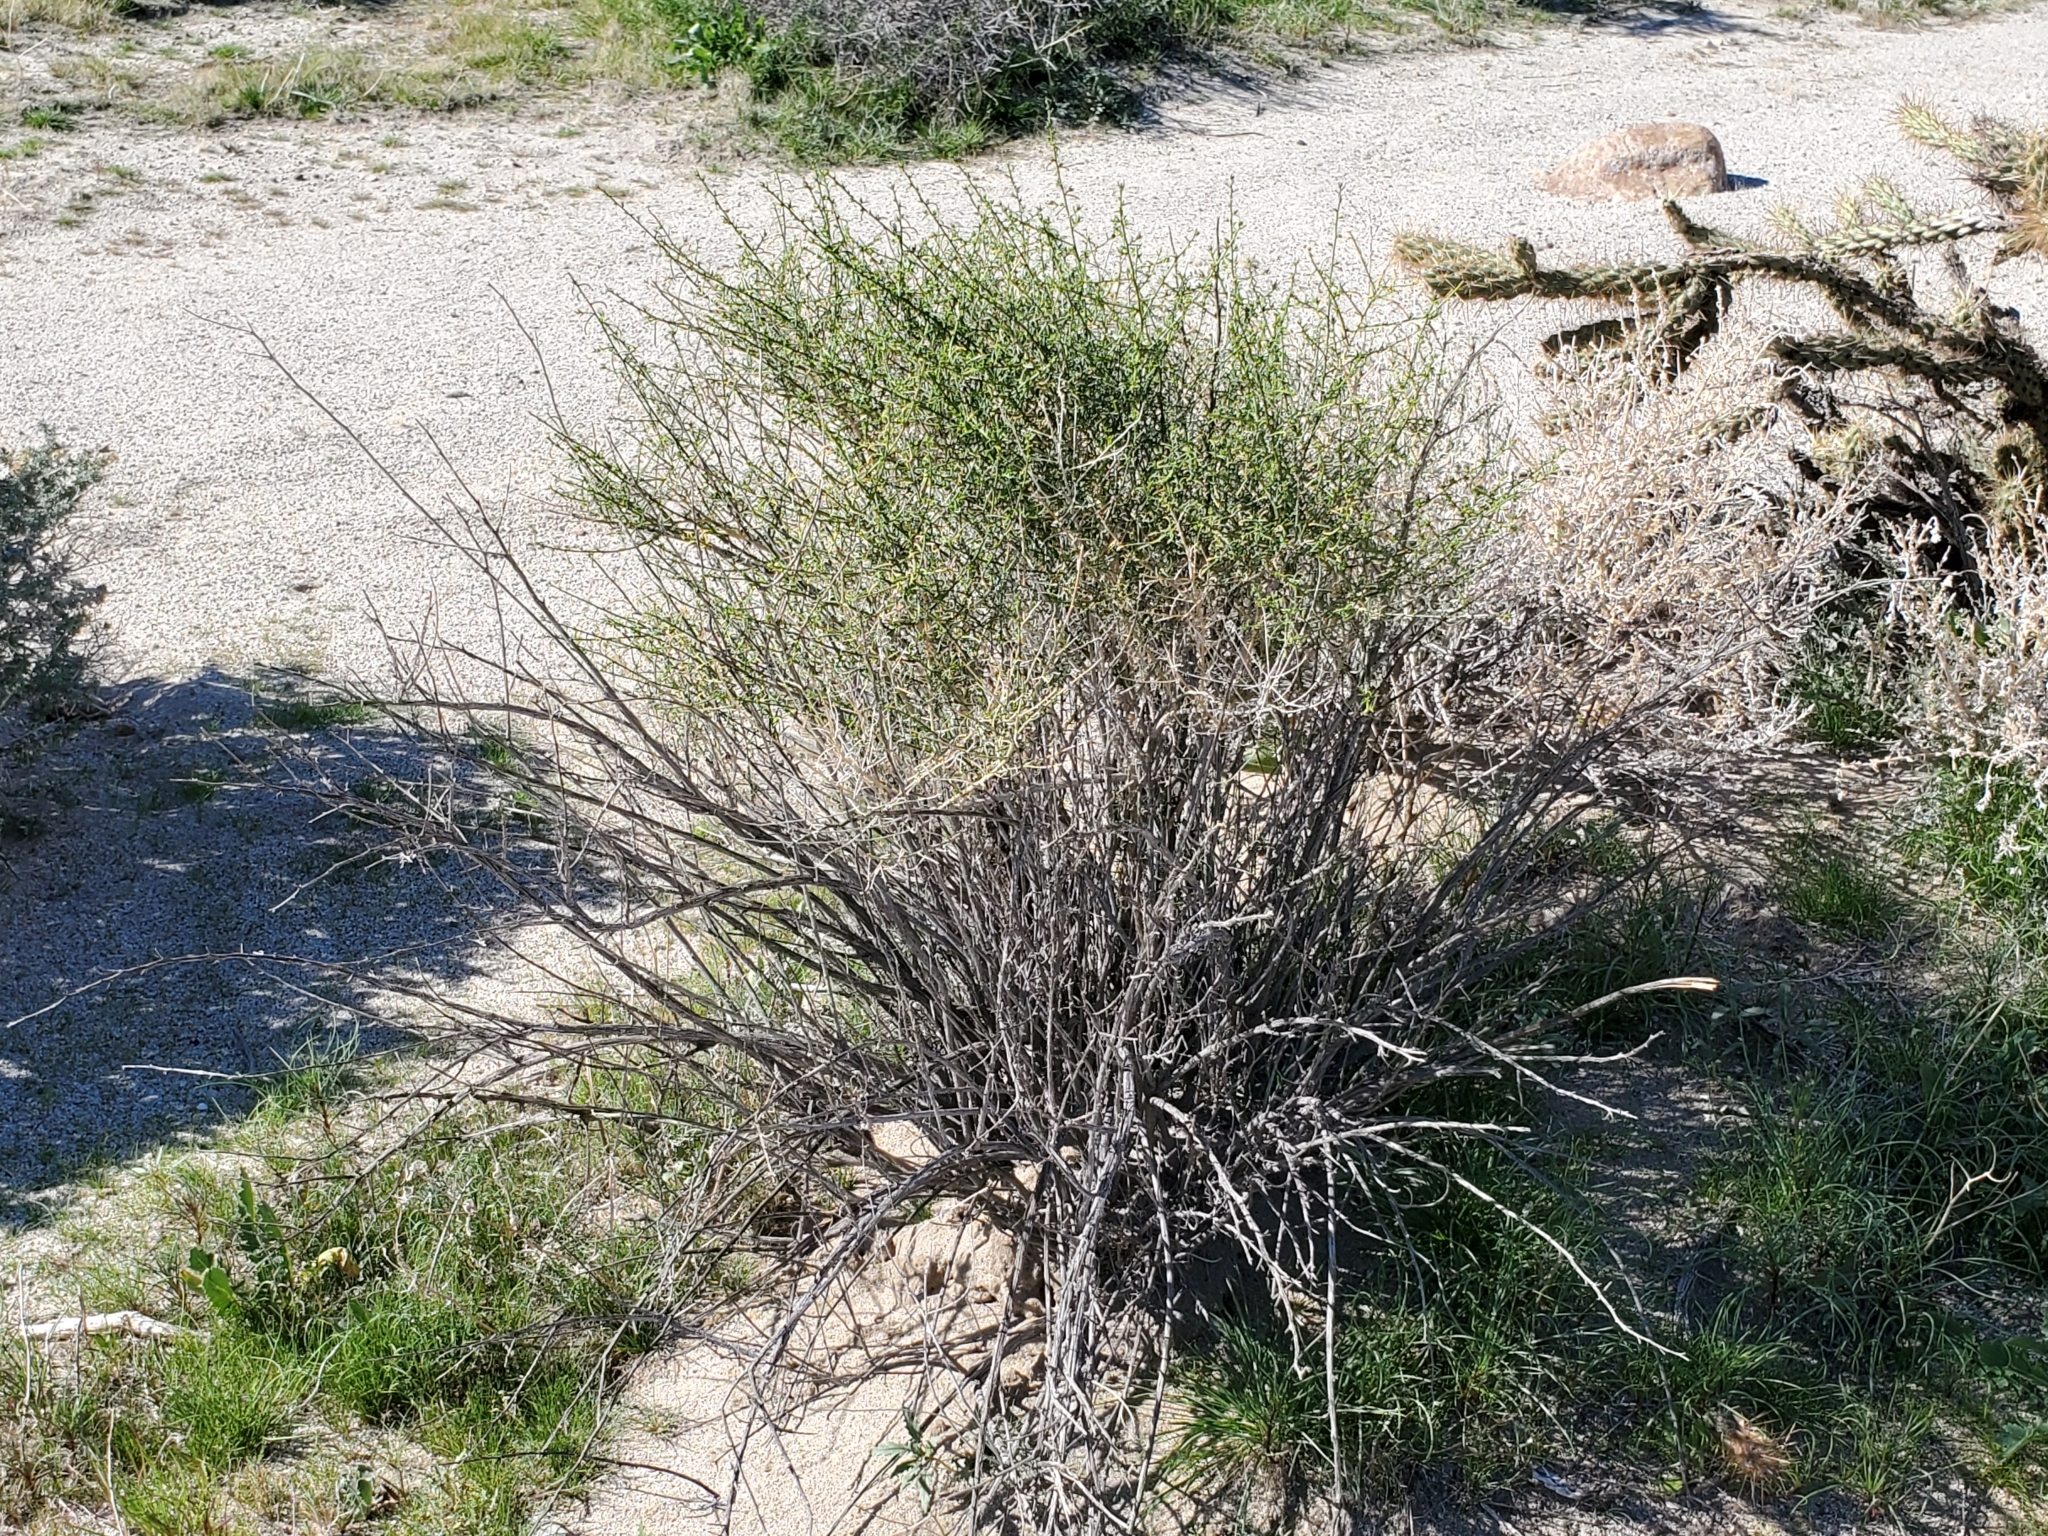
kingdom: Plantae
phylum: Tracheophyta
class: Magnoliopsida
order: Asterales
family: Asteraceae
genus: Ambrosia
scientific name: Ambrosia salsola
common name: Burrobrush
